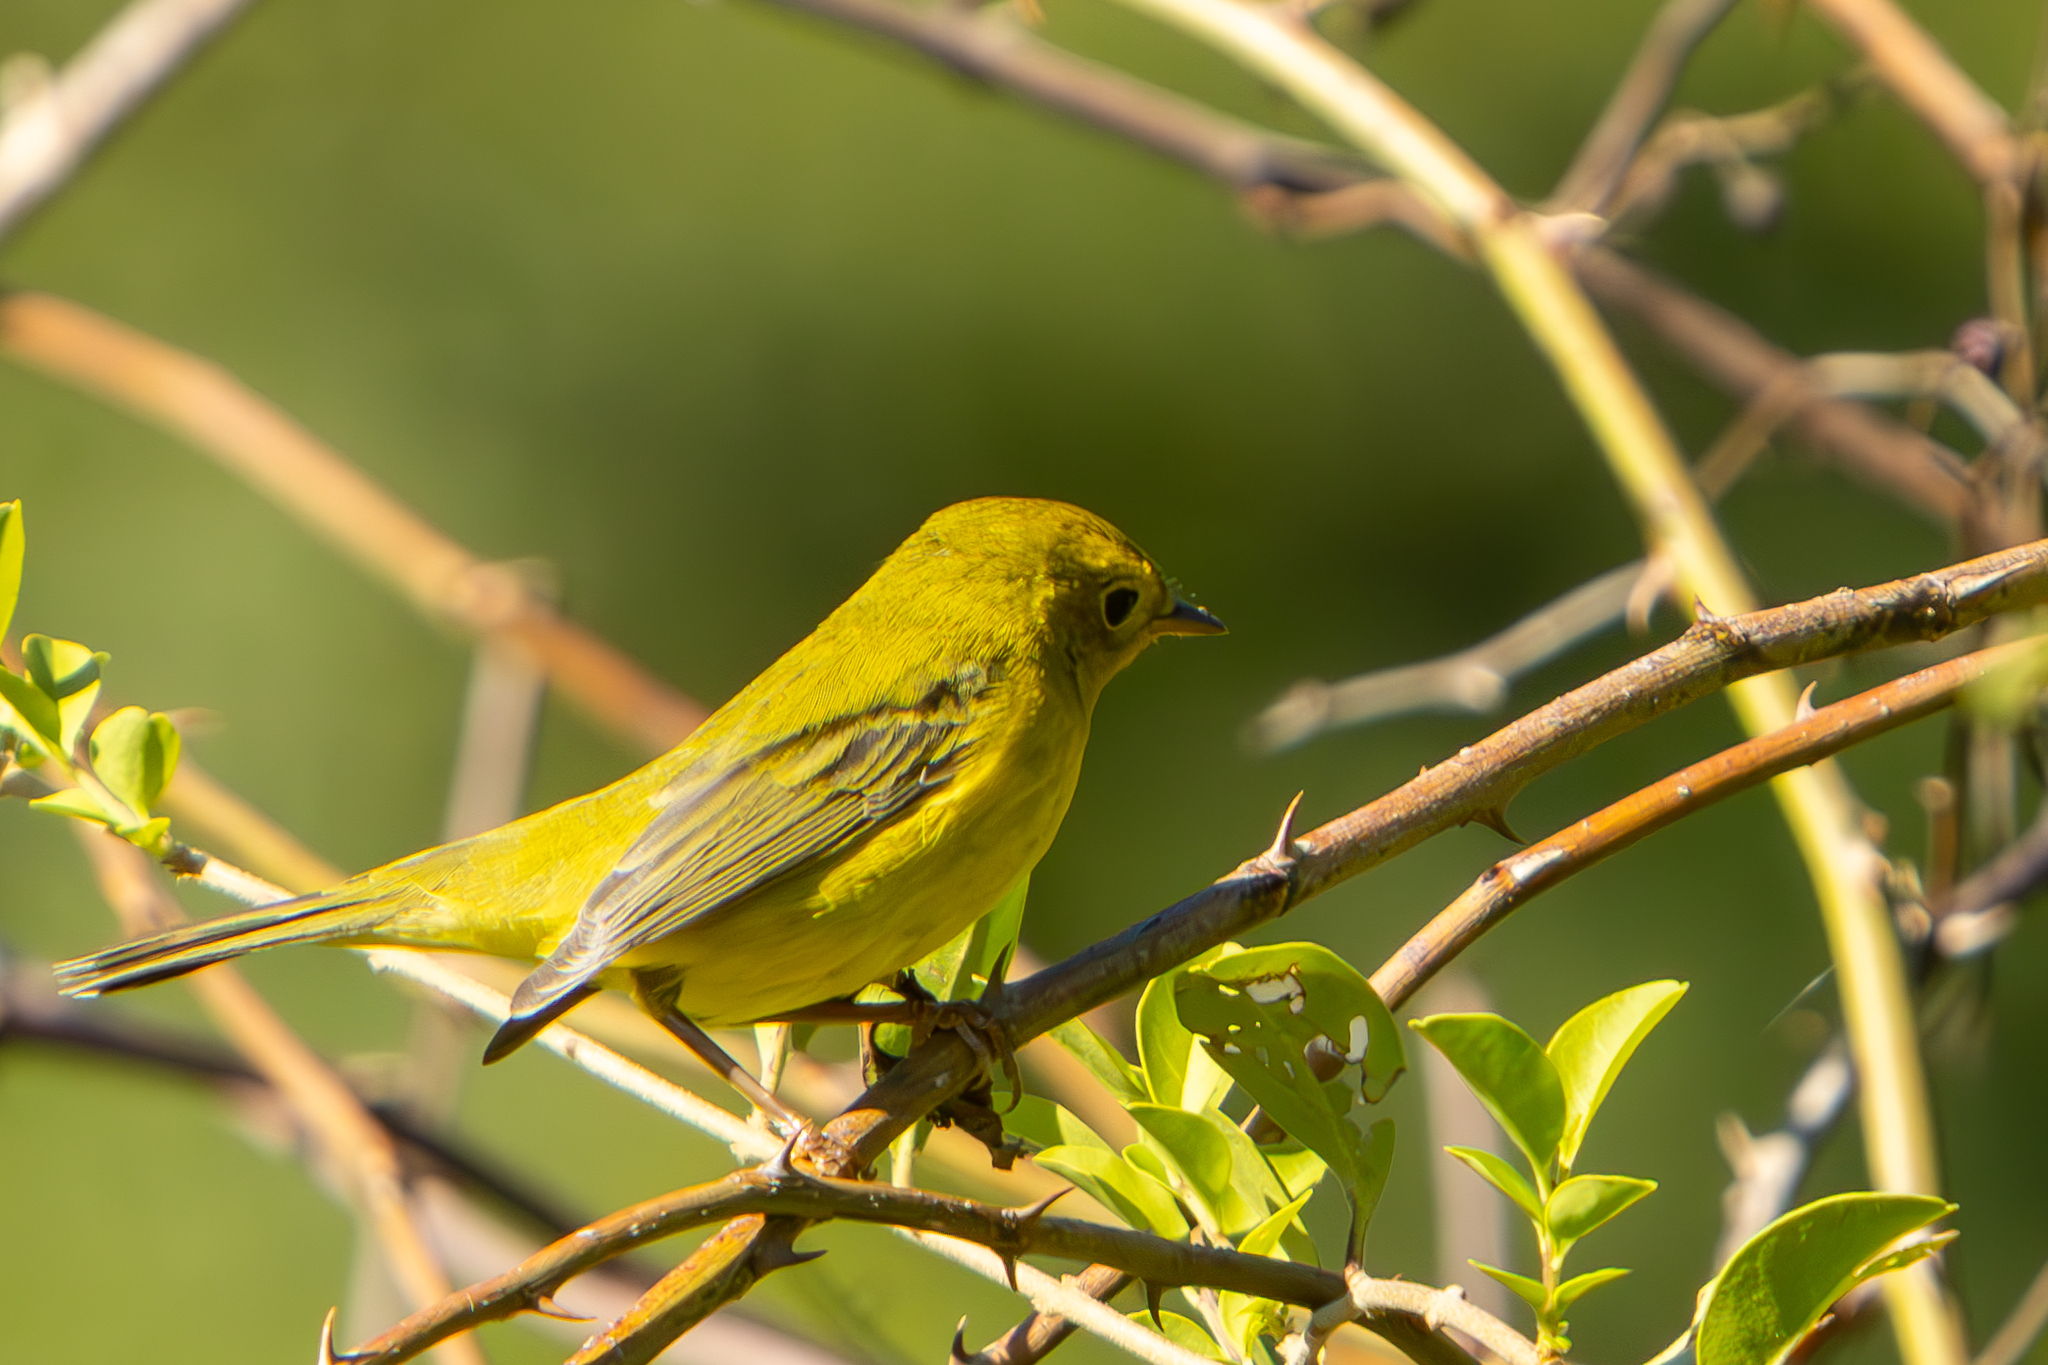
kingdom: Animalia
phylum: Chordata
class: Aves
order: Passeriformes
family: Parulidae
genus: Cardellina
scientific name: Cardellina pusilla
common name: Wilson's warbler
